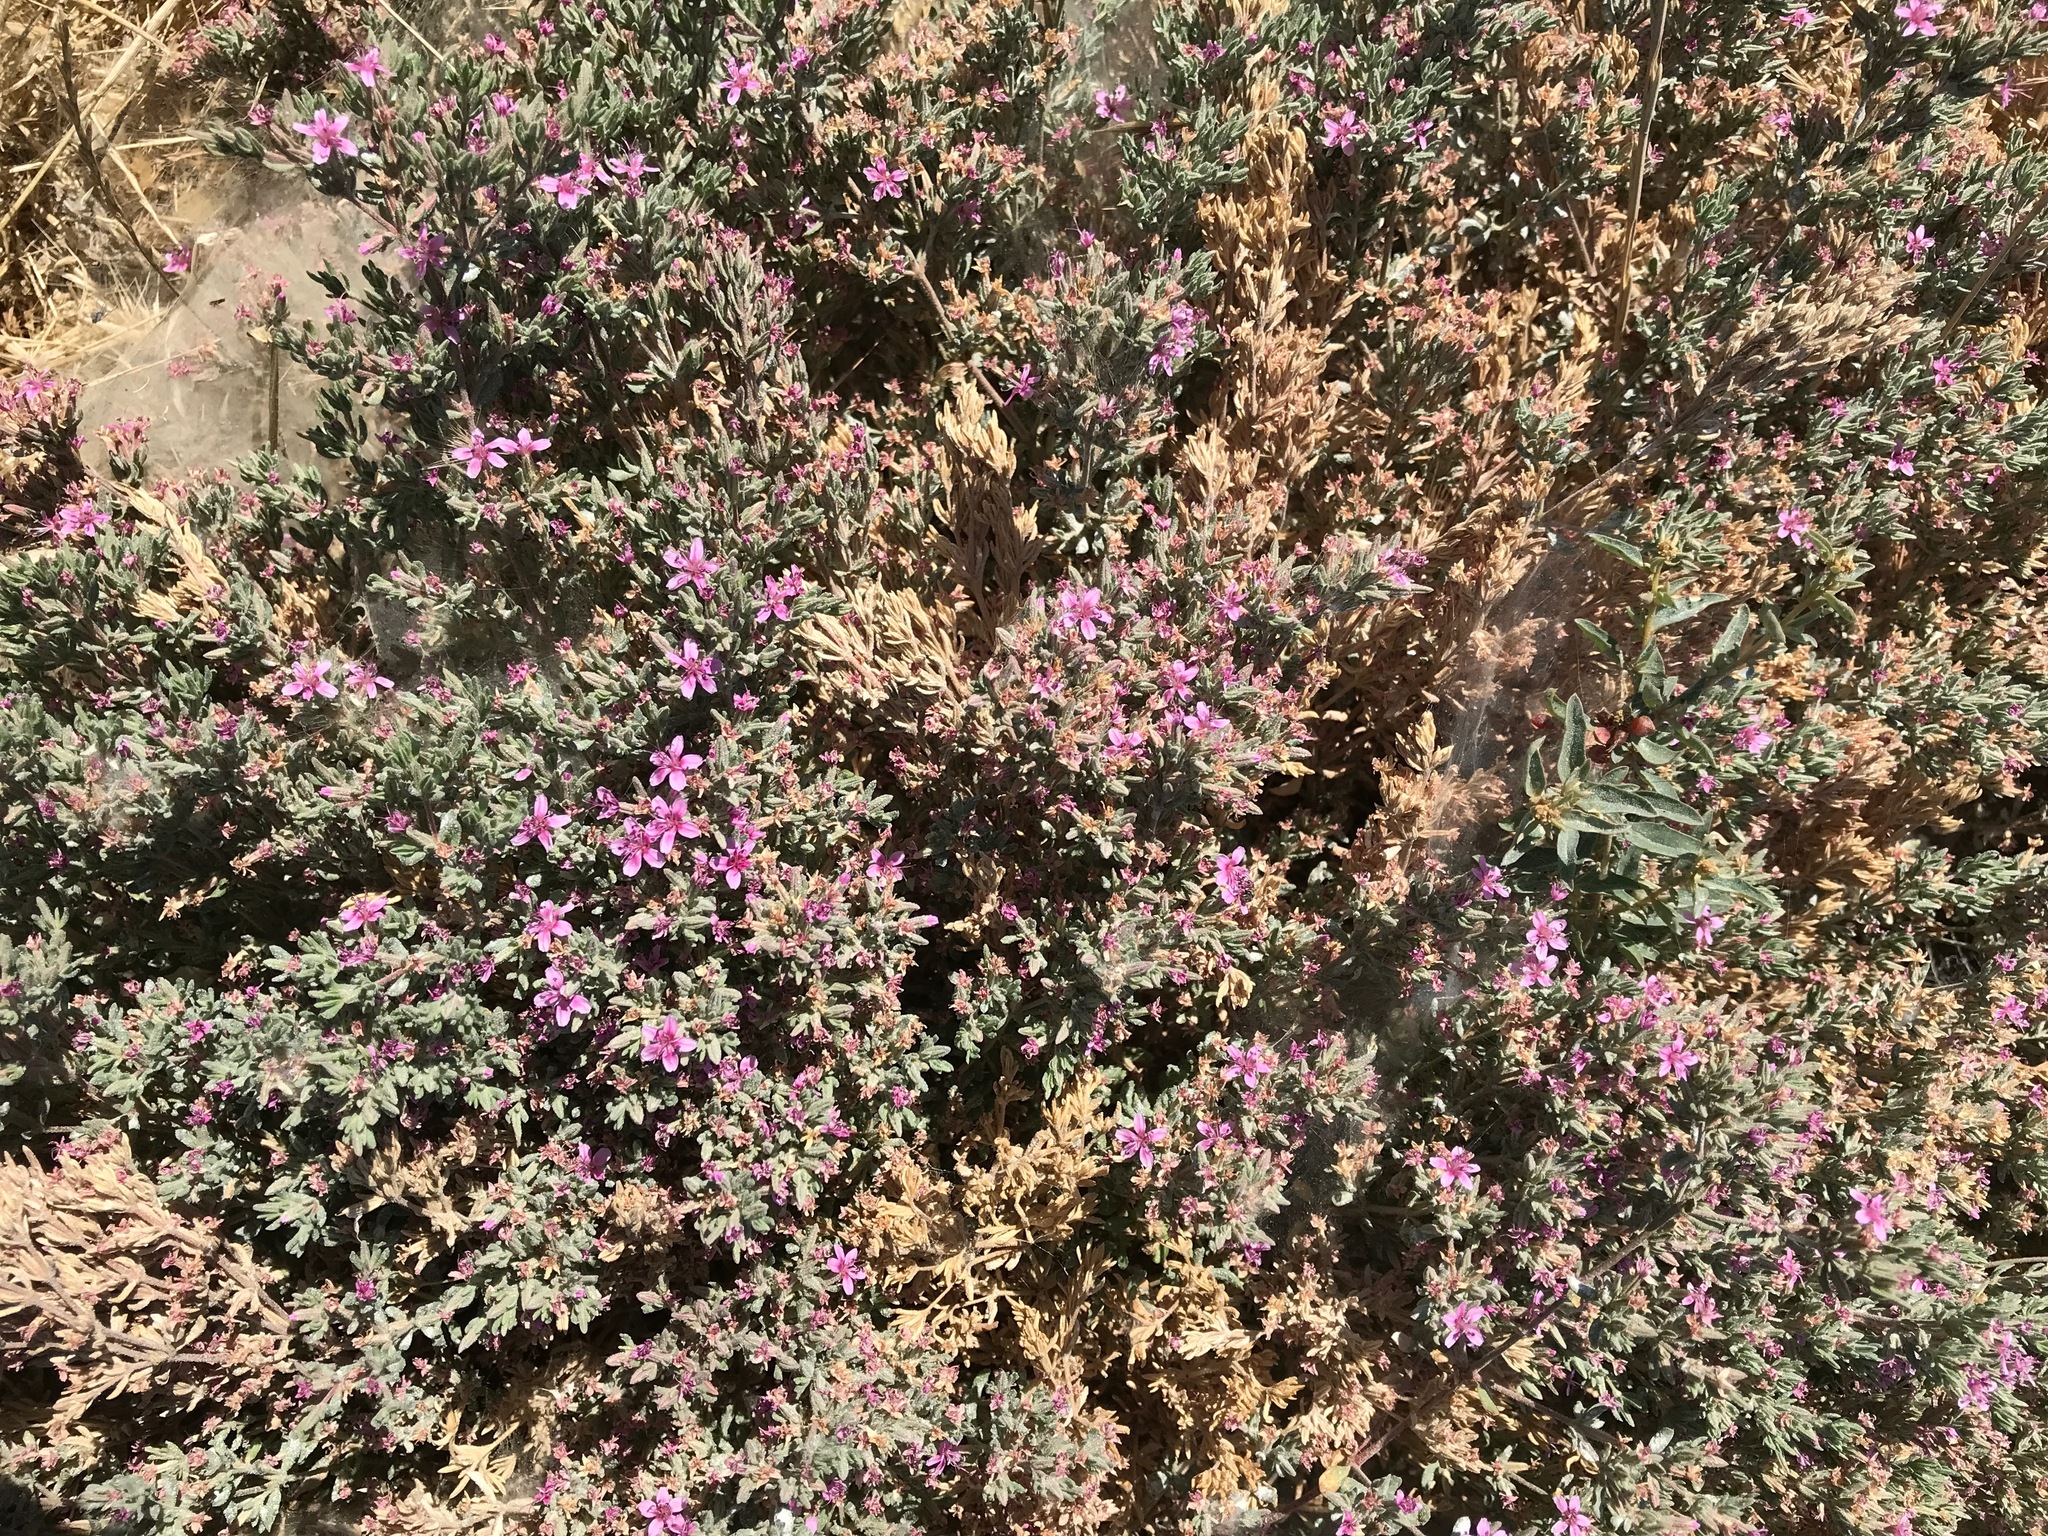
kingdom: Plantae
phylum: Tracheophyta
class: Magnoliopsida
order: Caryophyllales
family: Frankeniaceae
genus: Frankenia
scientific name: Frankenia salina
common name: Alkali seaheath
